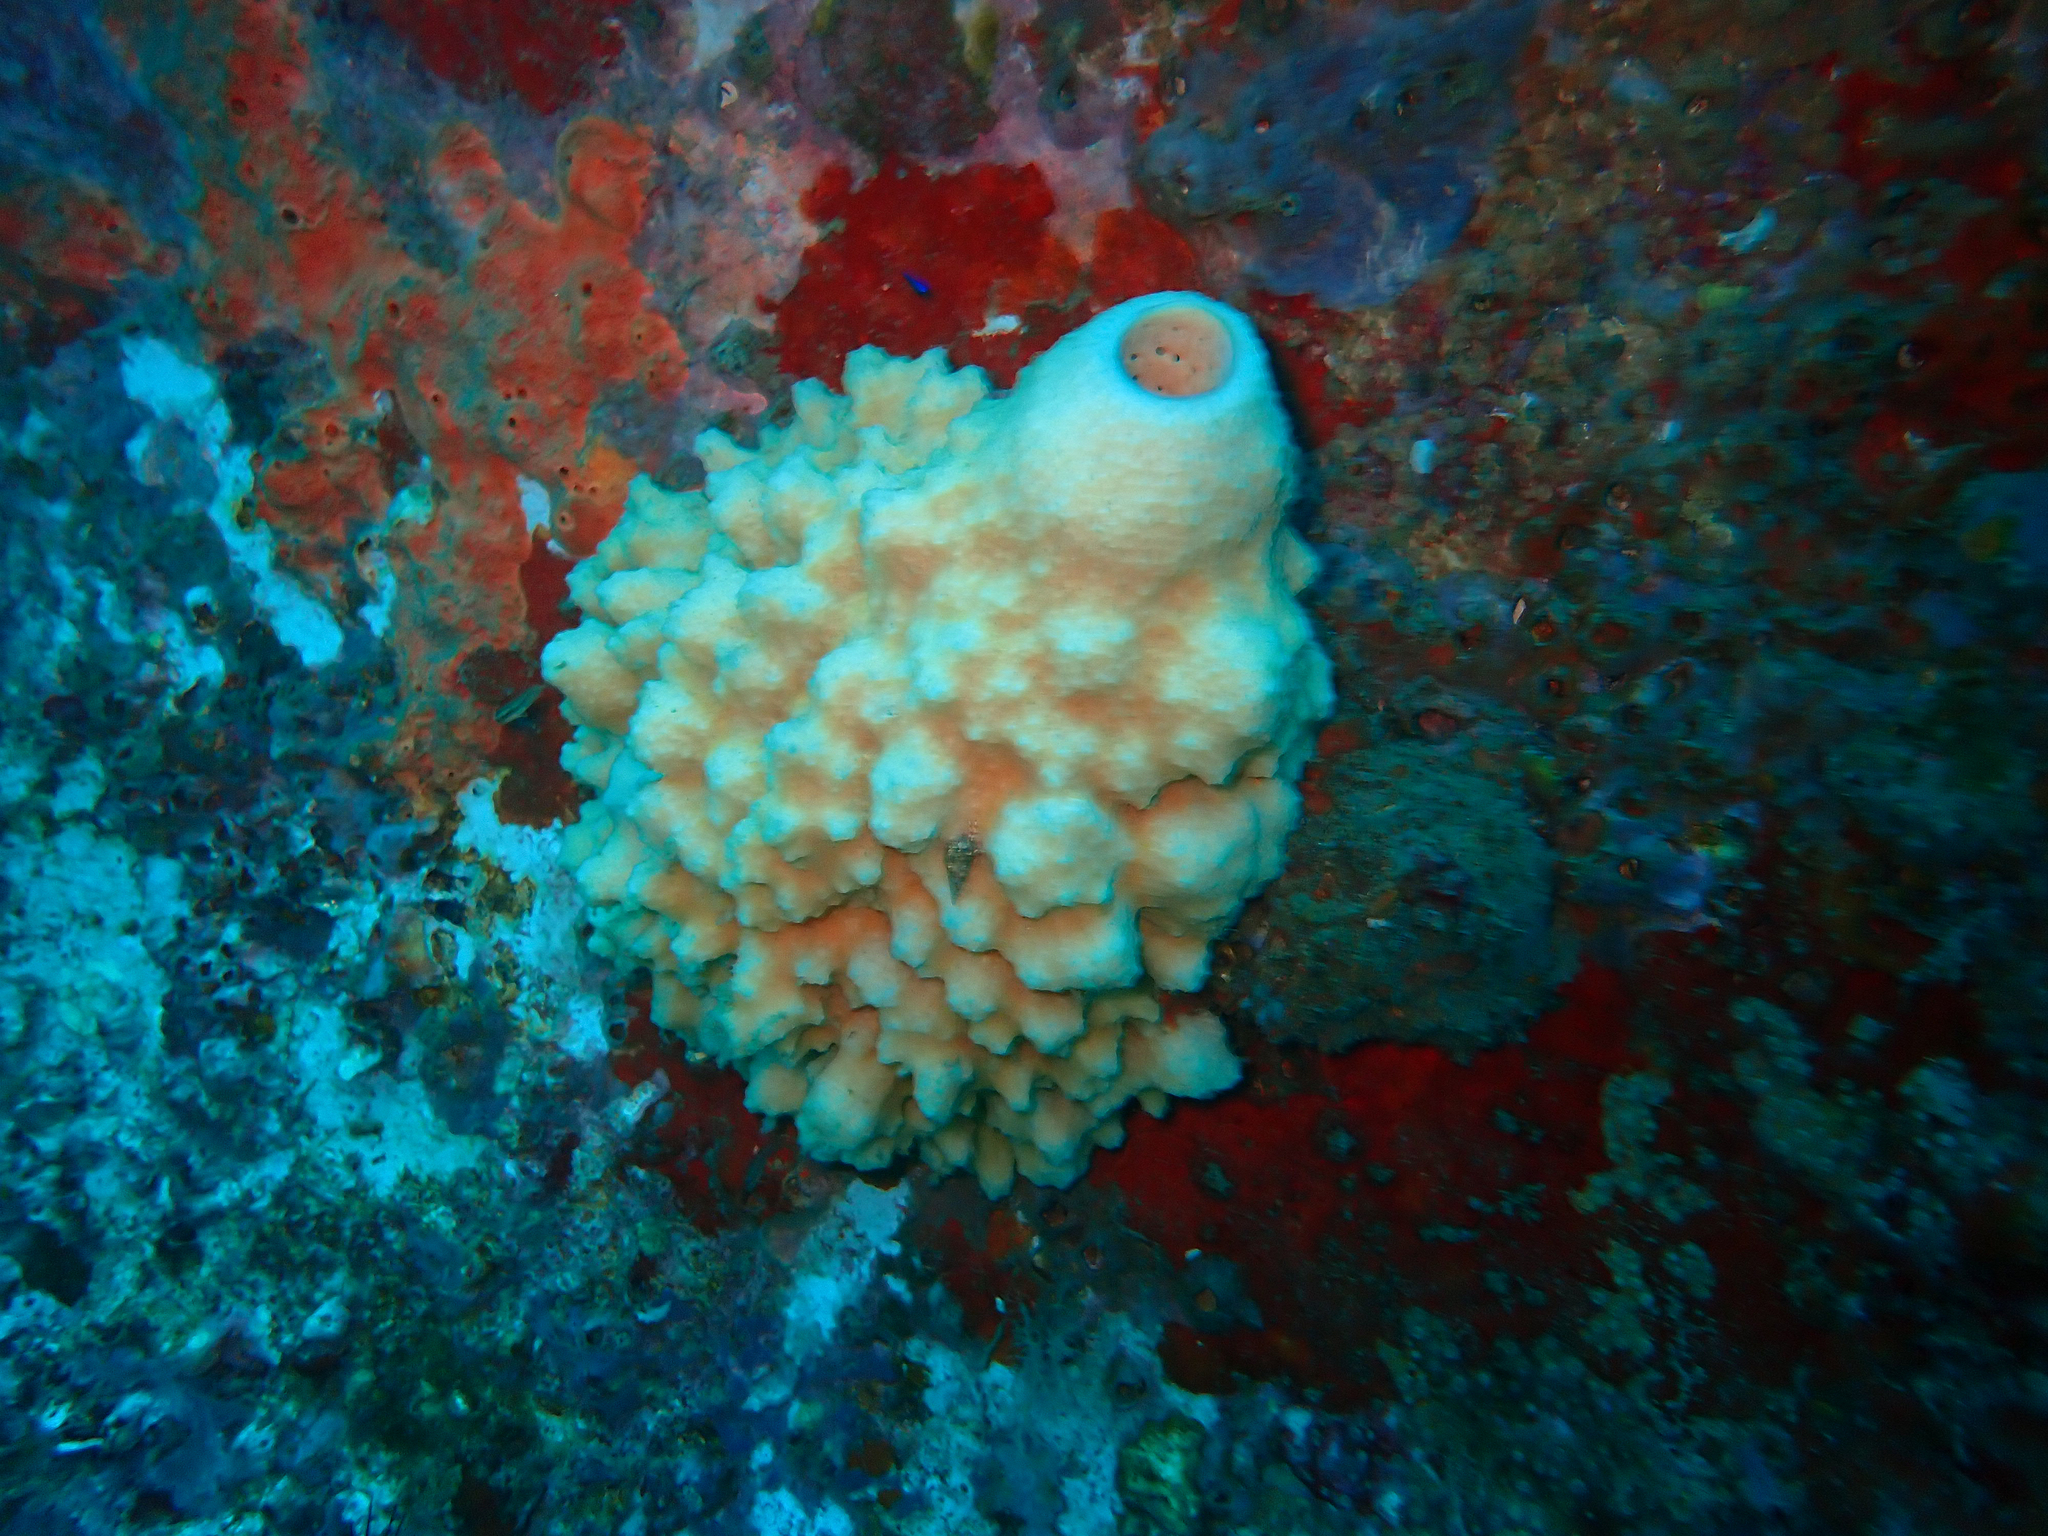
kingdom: Animalia
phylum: Porifera
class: Demospongiae
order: Dictyoceratida
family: Irciniidae
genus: Ircinia
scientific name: Ircinia felix
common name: Stinker sponge
